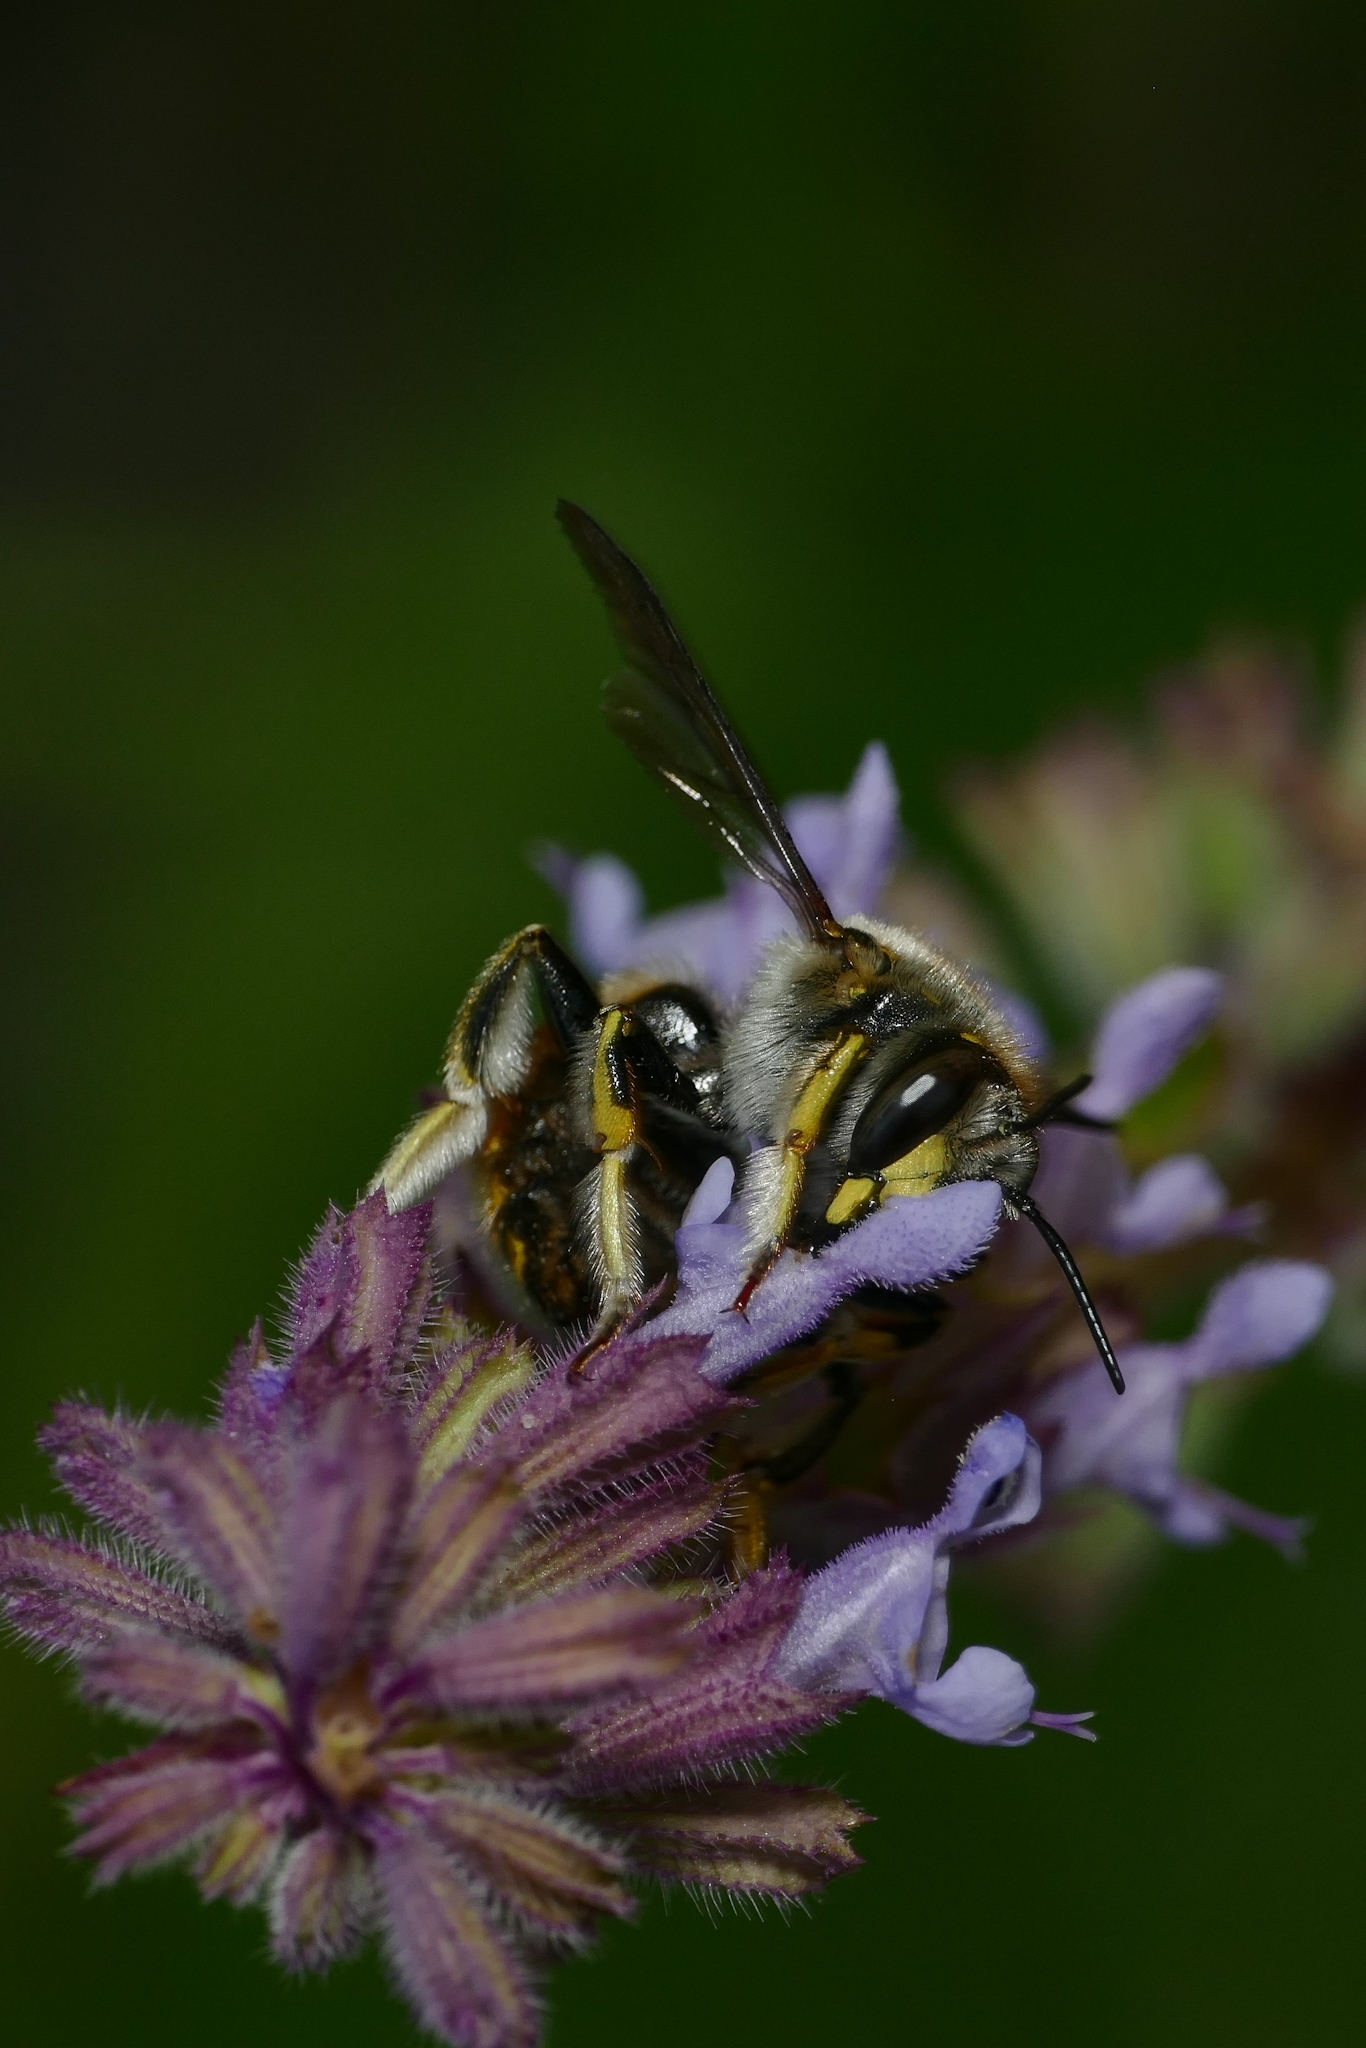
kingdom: Animalia
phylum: Arthropoda
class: Insecta
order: Hymenoptera
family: Megachilidae
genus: Anthidium
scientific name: Anthidium manicatum
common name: Wool carder bee
